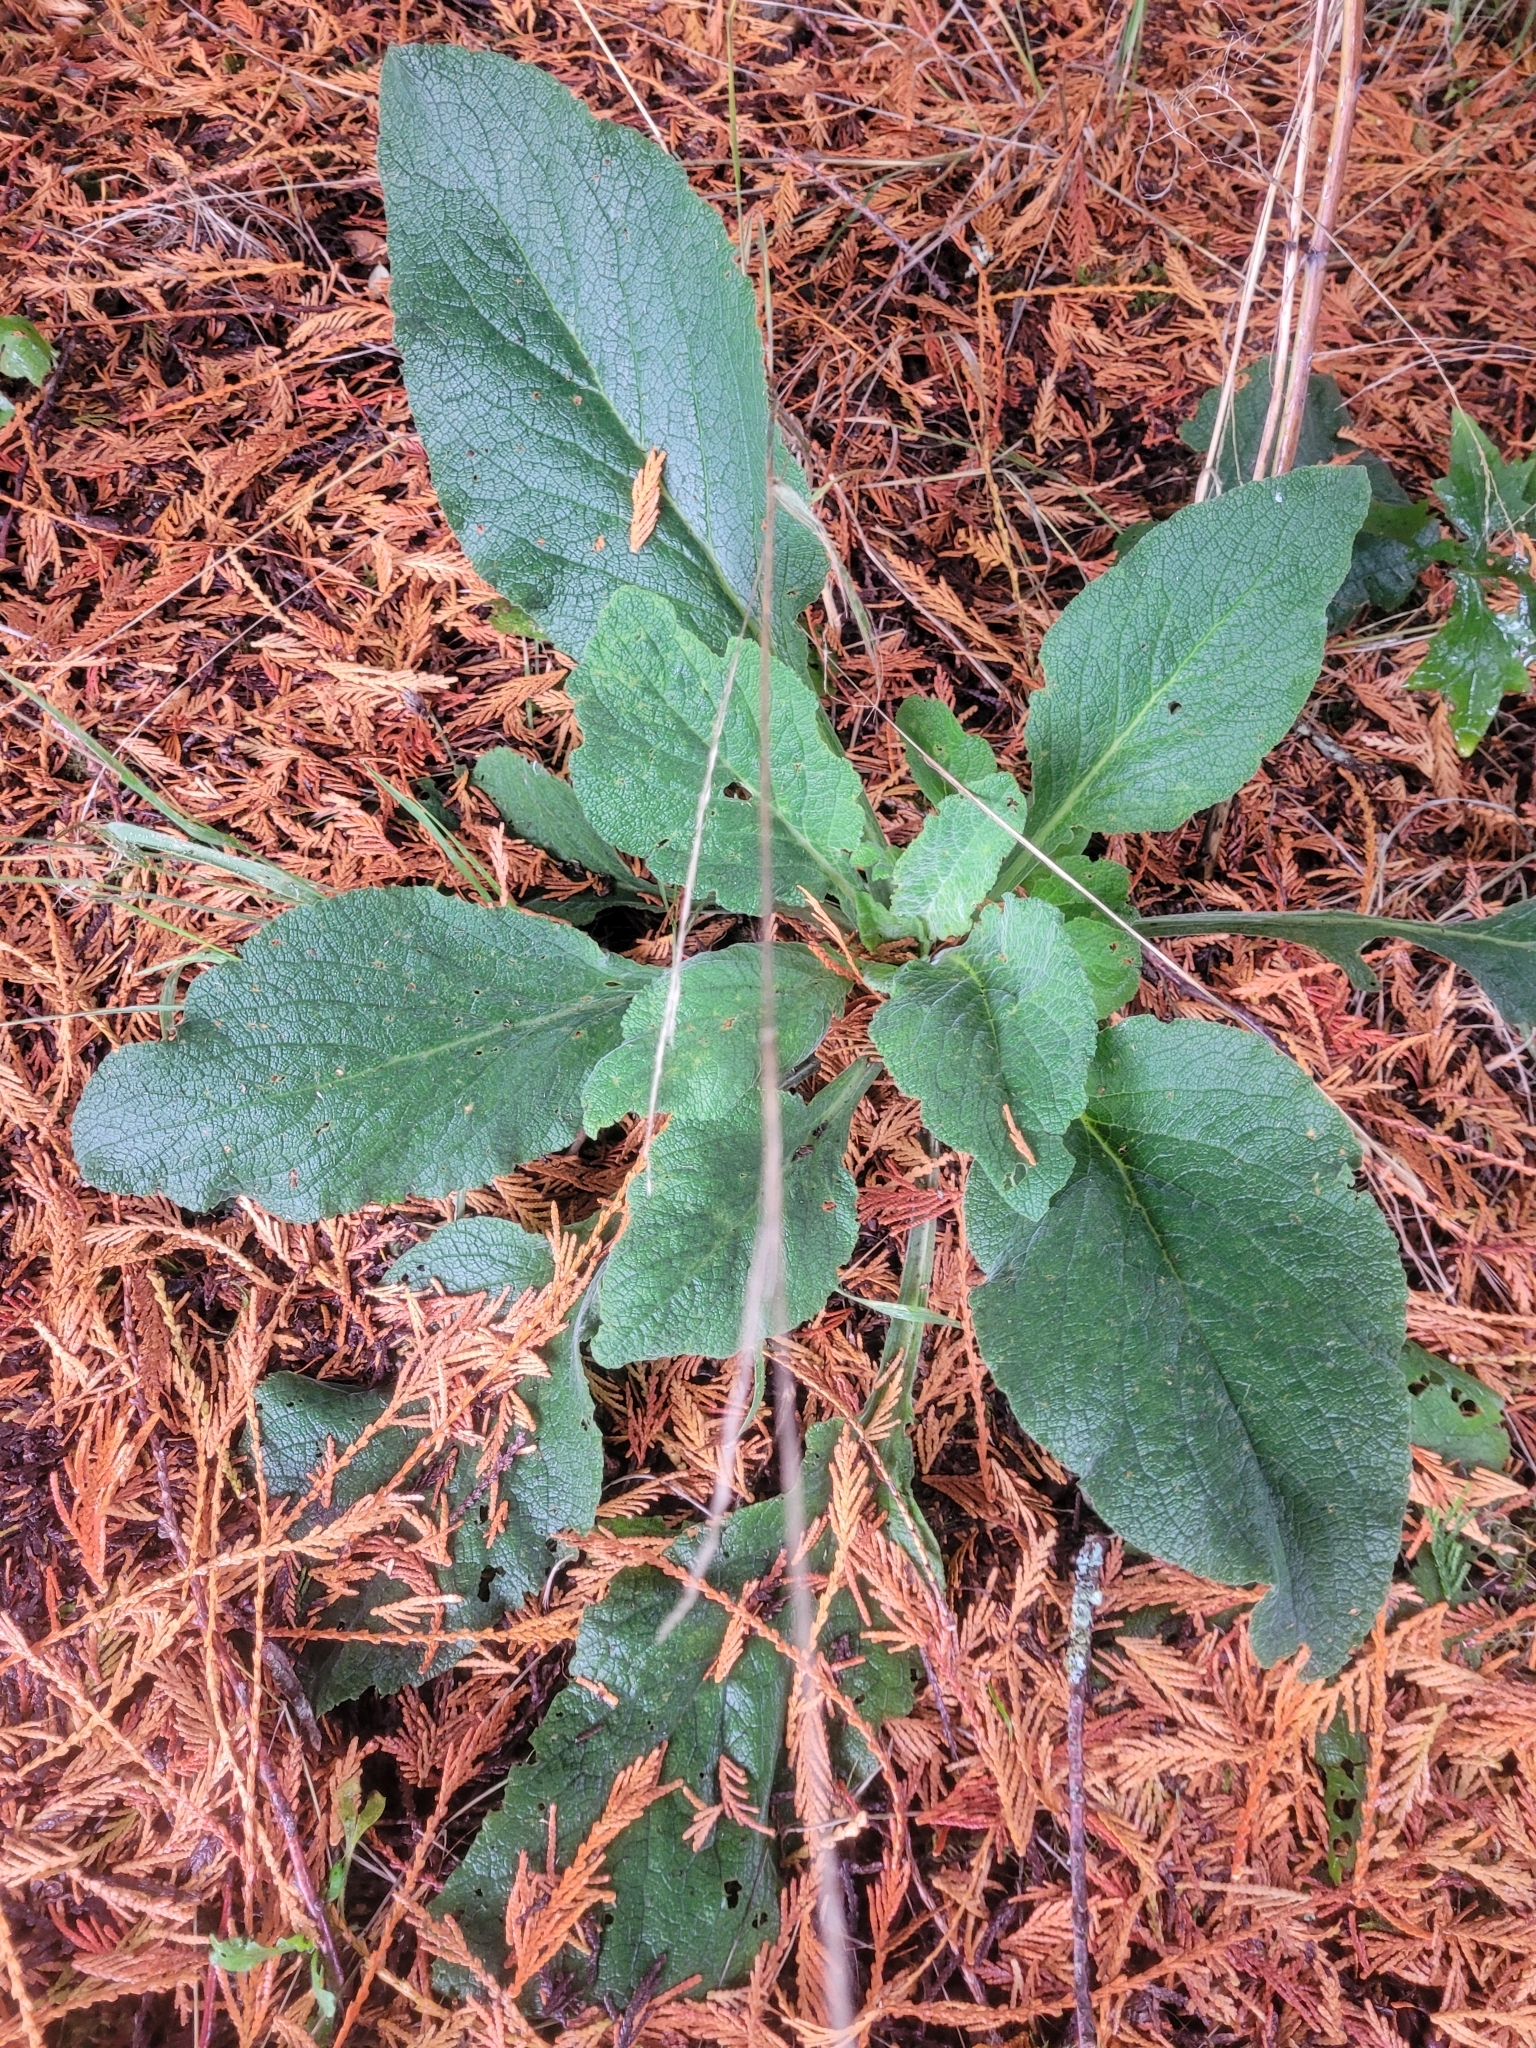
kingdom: Plantae
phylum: Tracheophyta
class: Magnoliopsida
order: Lamiales
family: Plantaginaceae
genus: Digitalis
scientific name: Digitalis purpurea
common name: Foxglove
